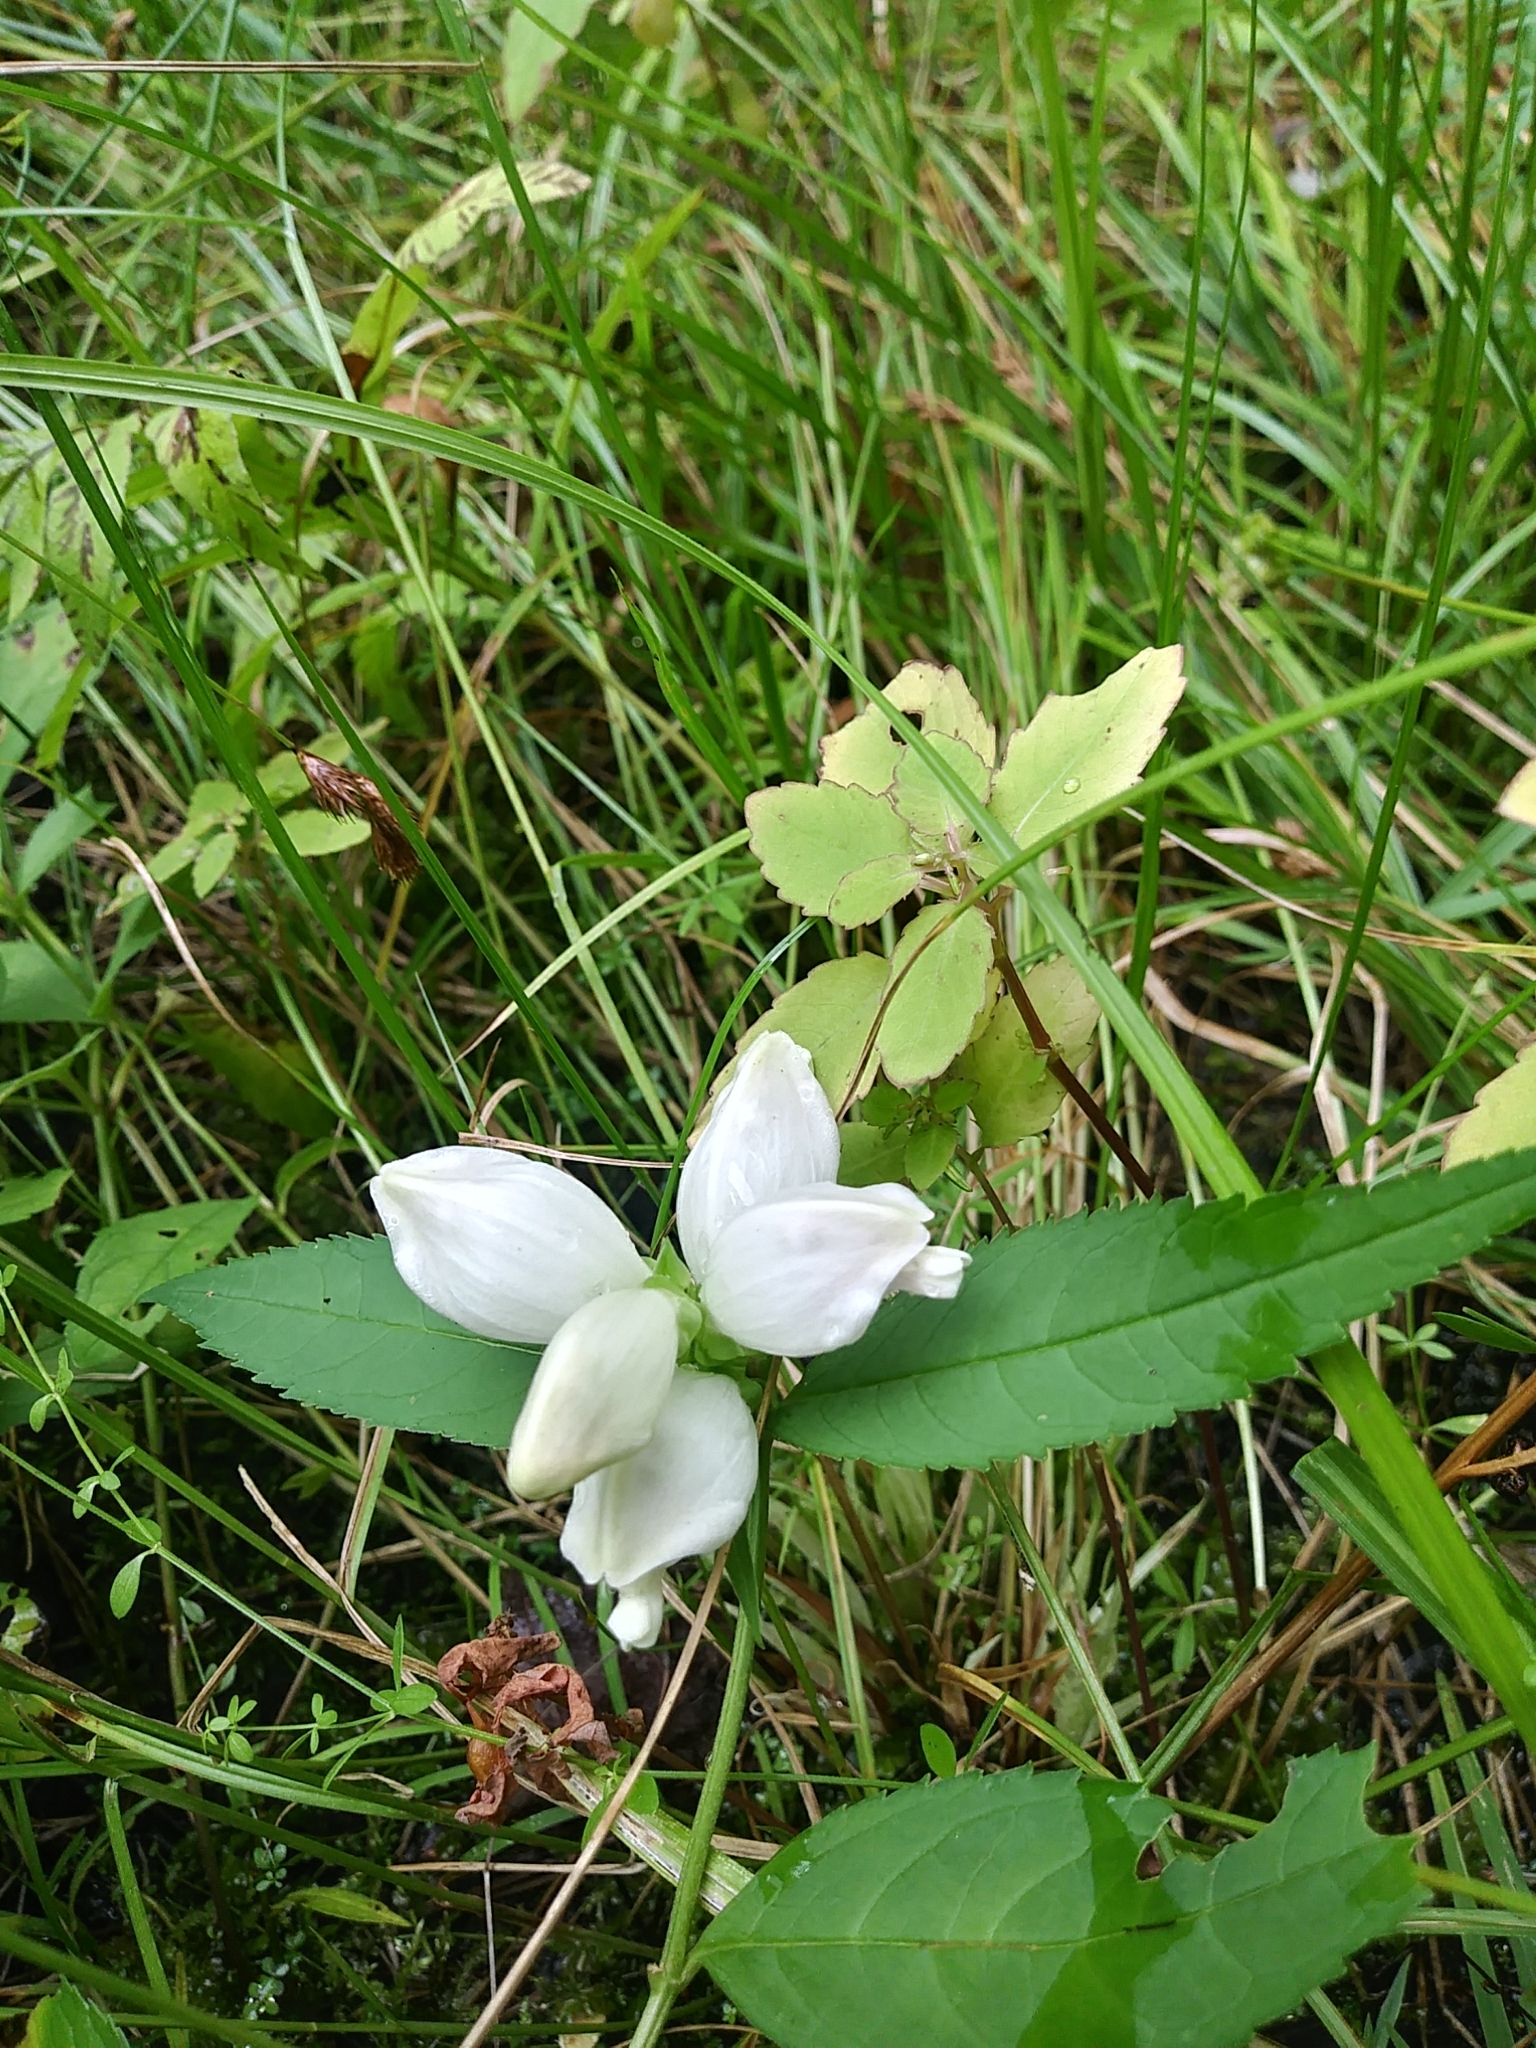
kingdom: Plantae
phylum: Tracheophyta
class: Magnoliopsida
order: Lamiales
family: Plantaginaceae
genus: Chelone
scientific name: Chelone glabra
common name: Snakehead
